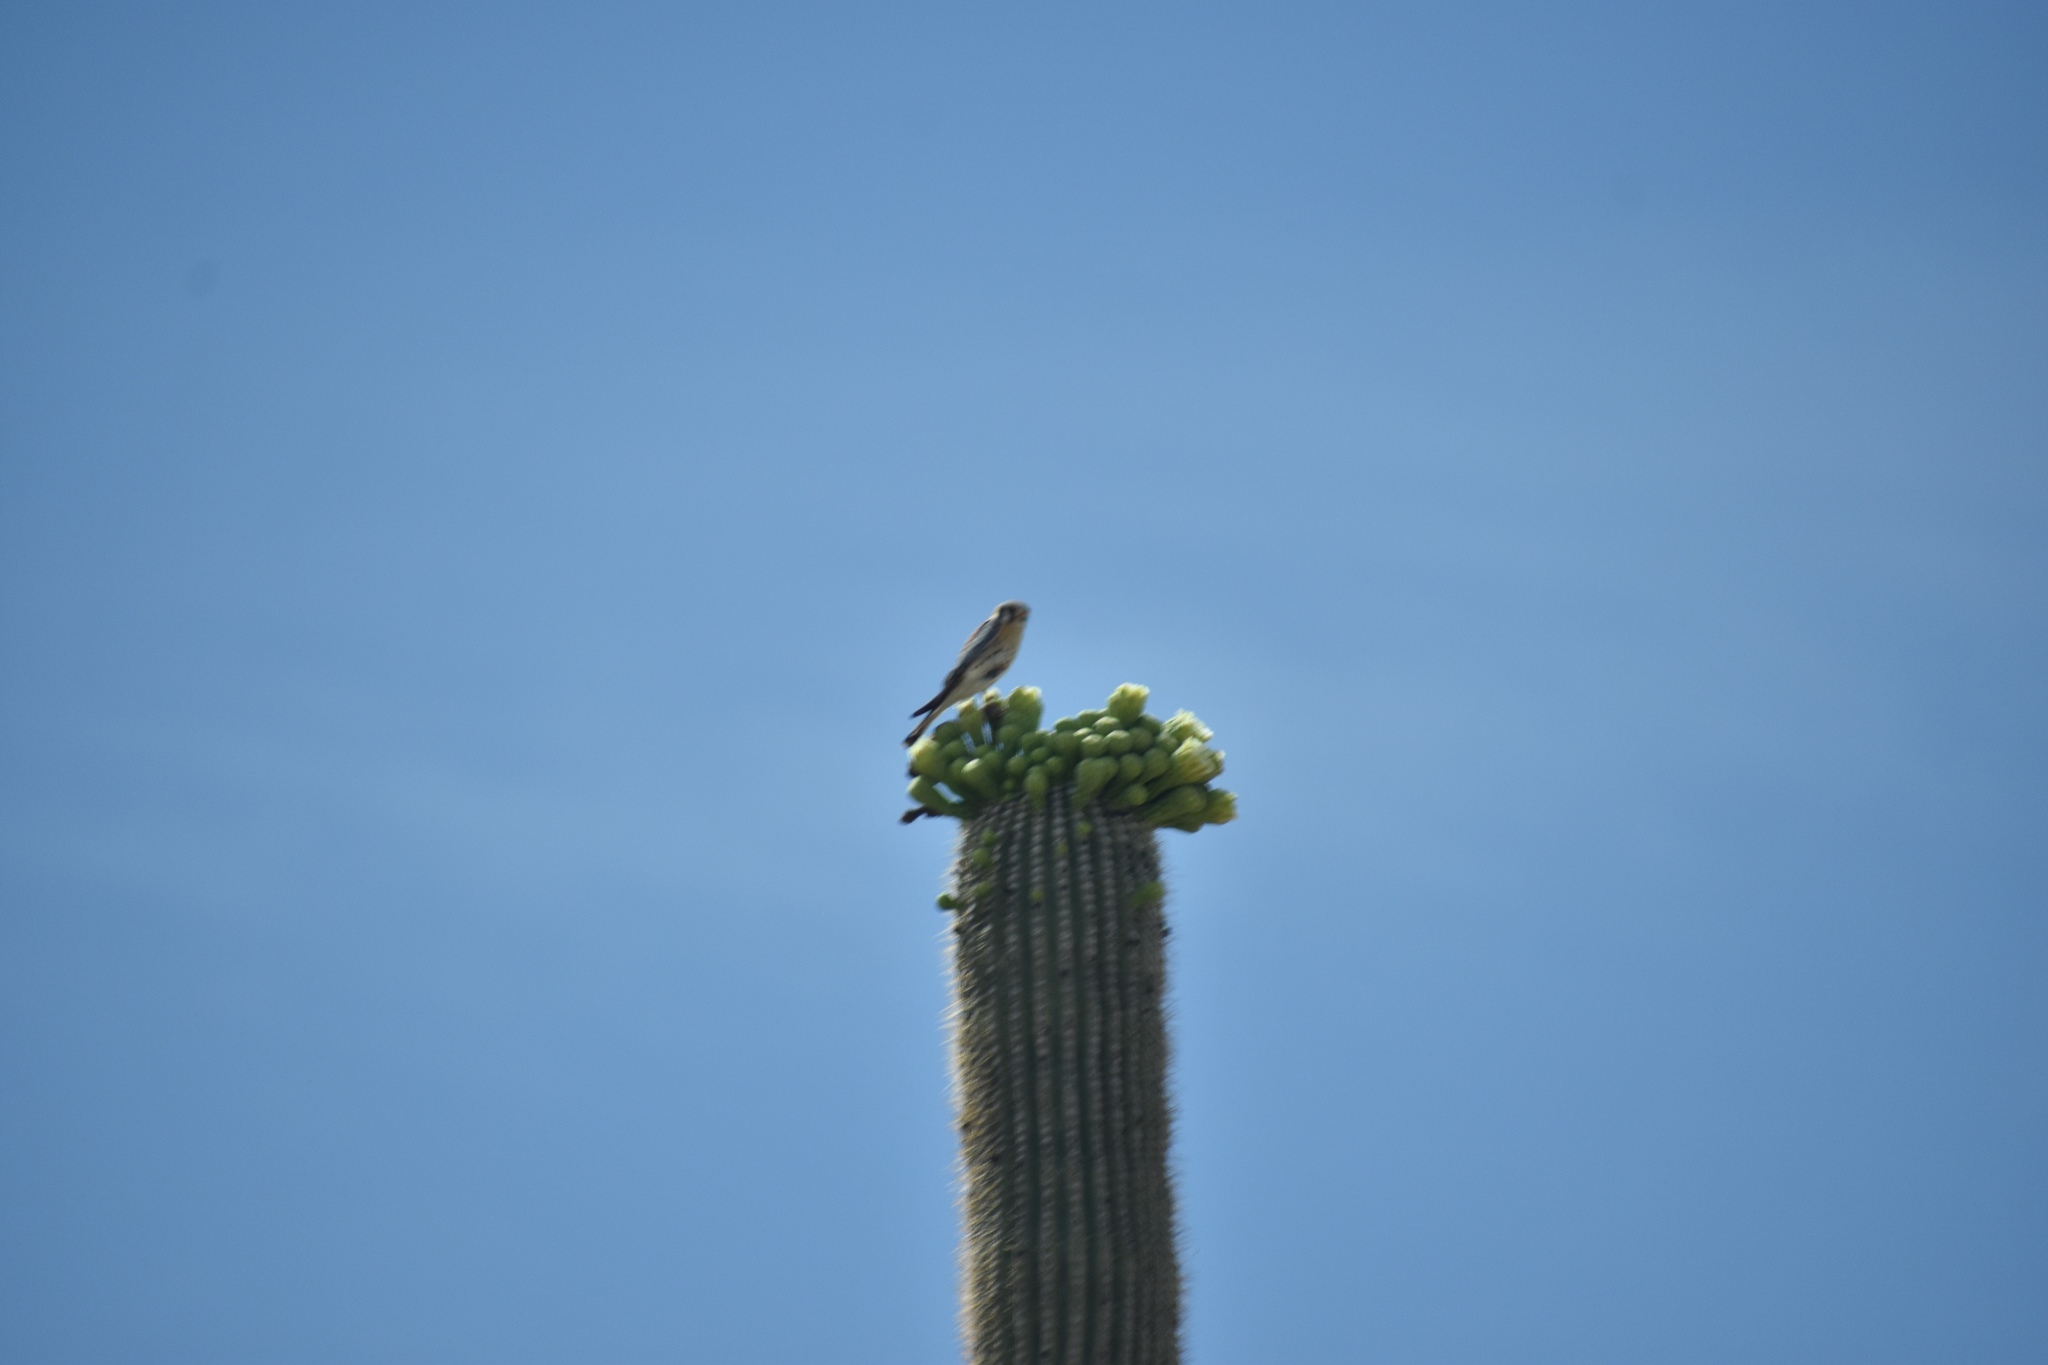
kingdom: Animalia
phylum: Chordata
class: Aves
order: Falconiformes
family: Falconidae
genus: Falco
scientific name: Falco sparverius
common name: American kestrel
